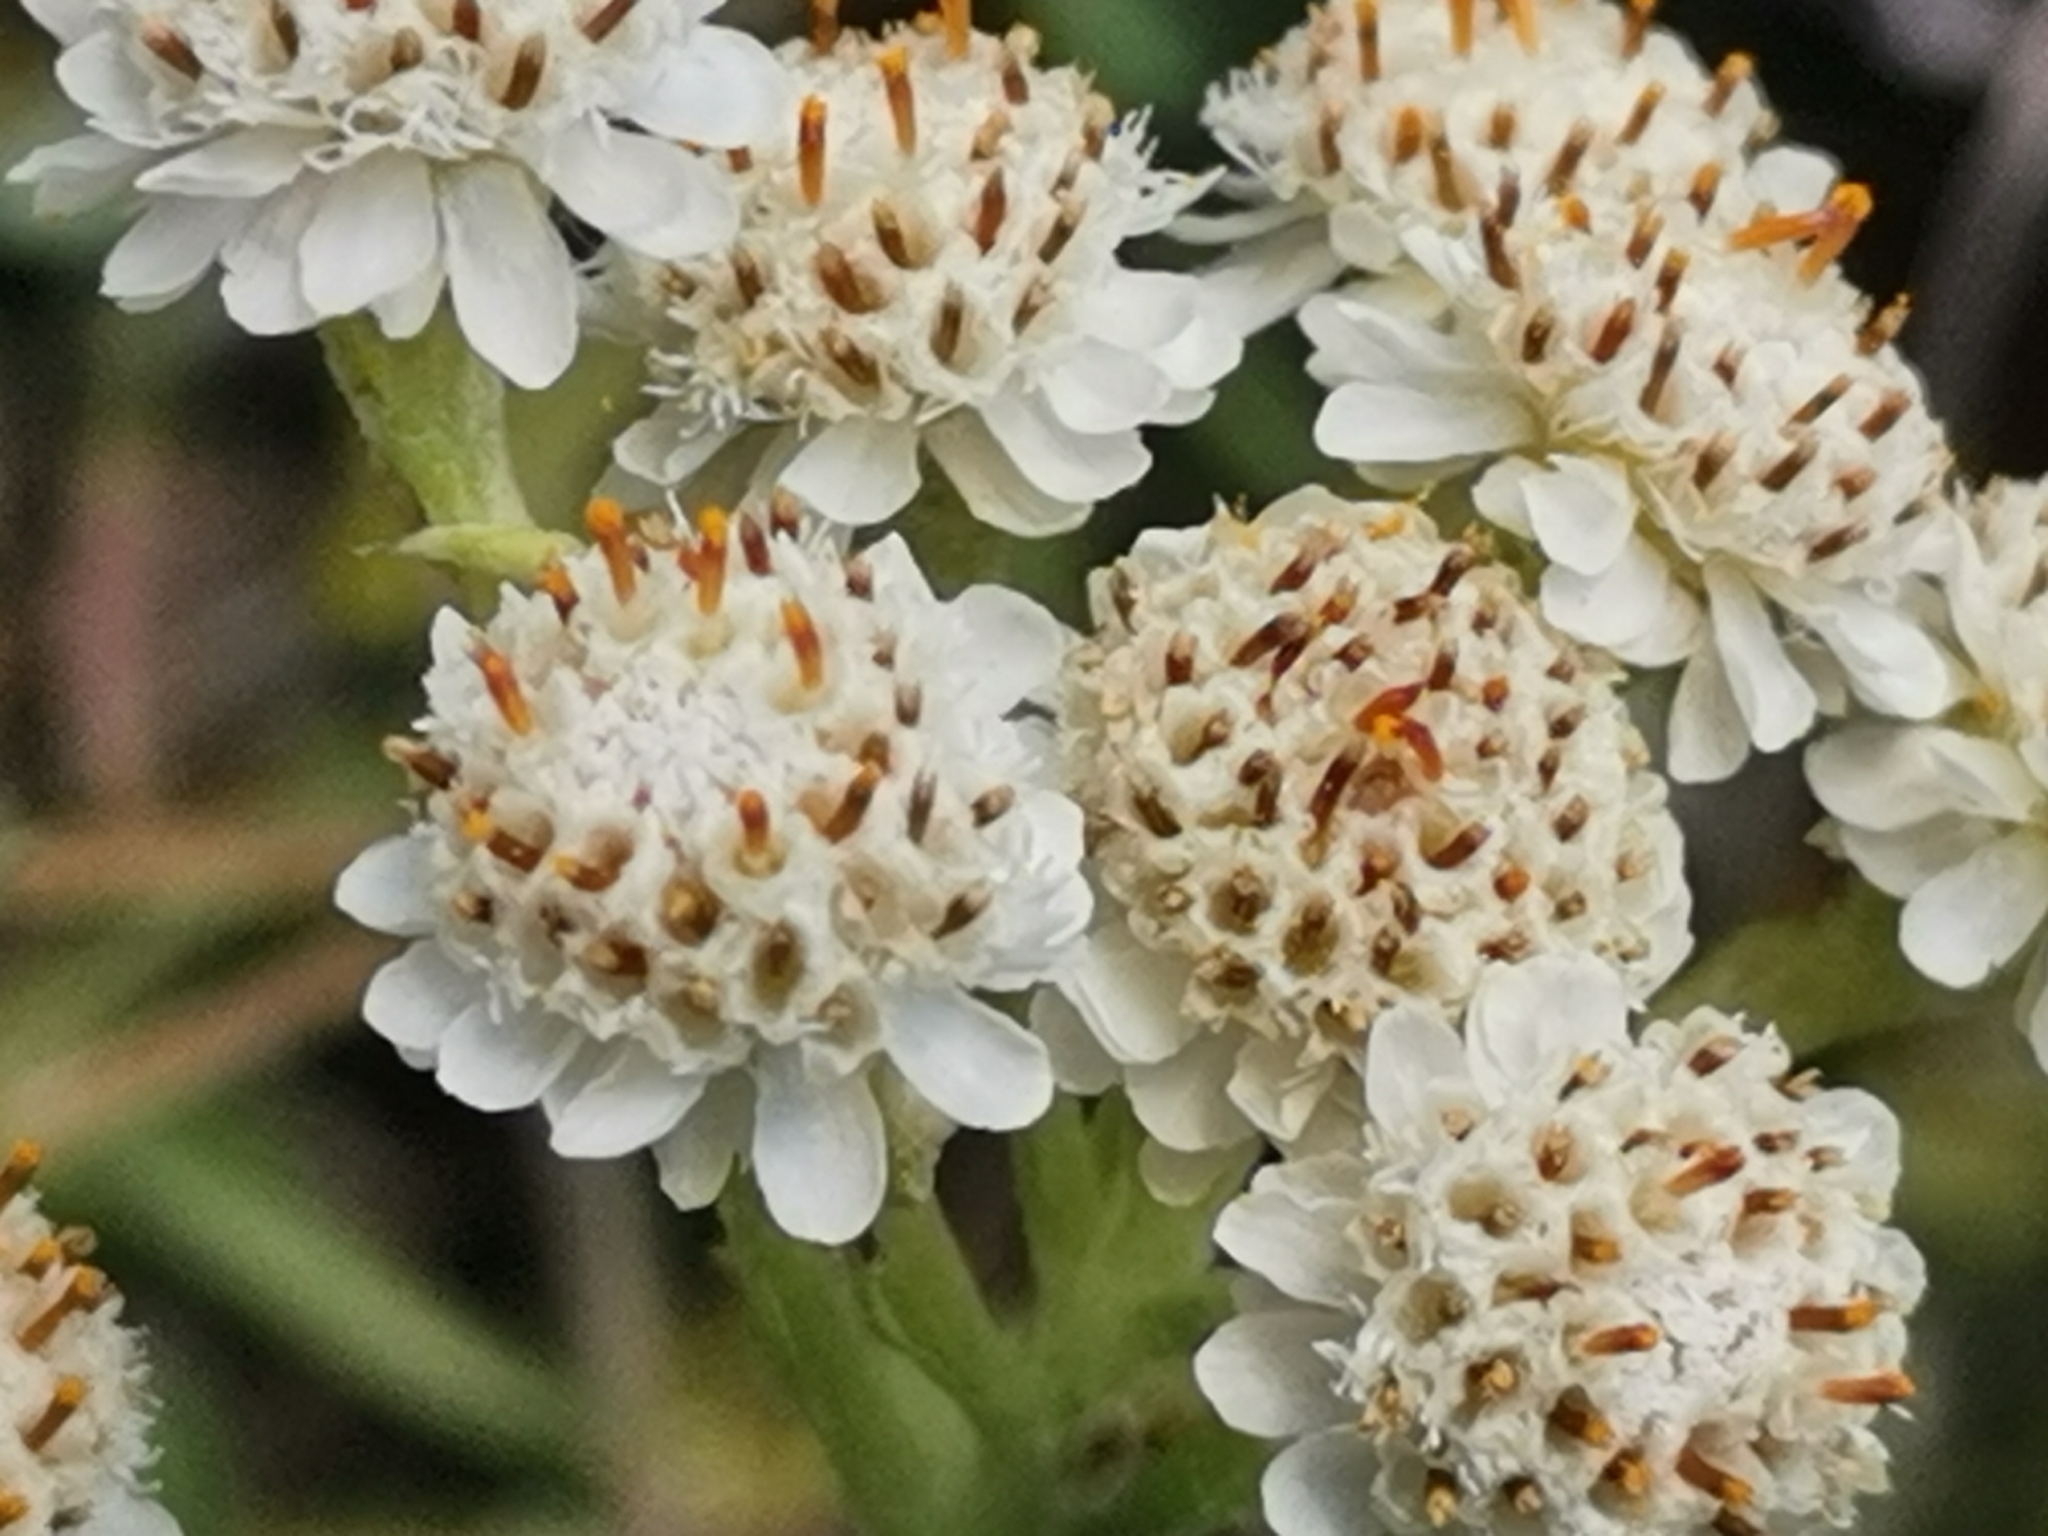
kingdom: Plantae
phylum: Tracheophyta
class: Magnoliopsida
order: Asterales
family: Asteraceae
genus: Antennaria
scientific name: Antennaria dioica
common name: Mountain everlasting
